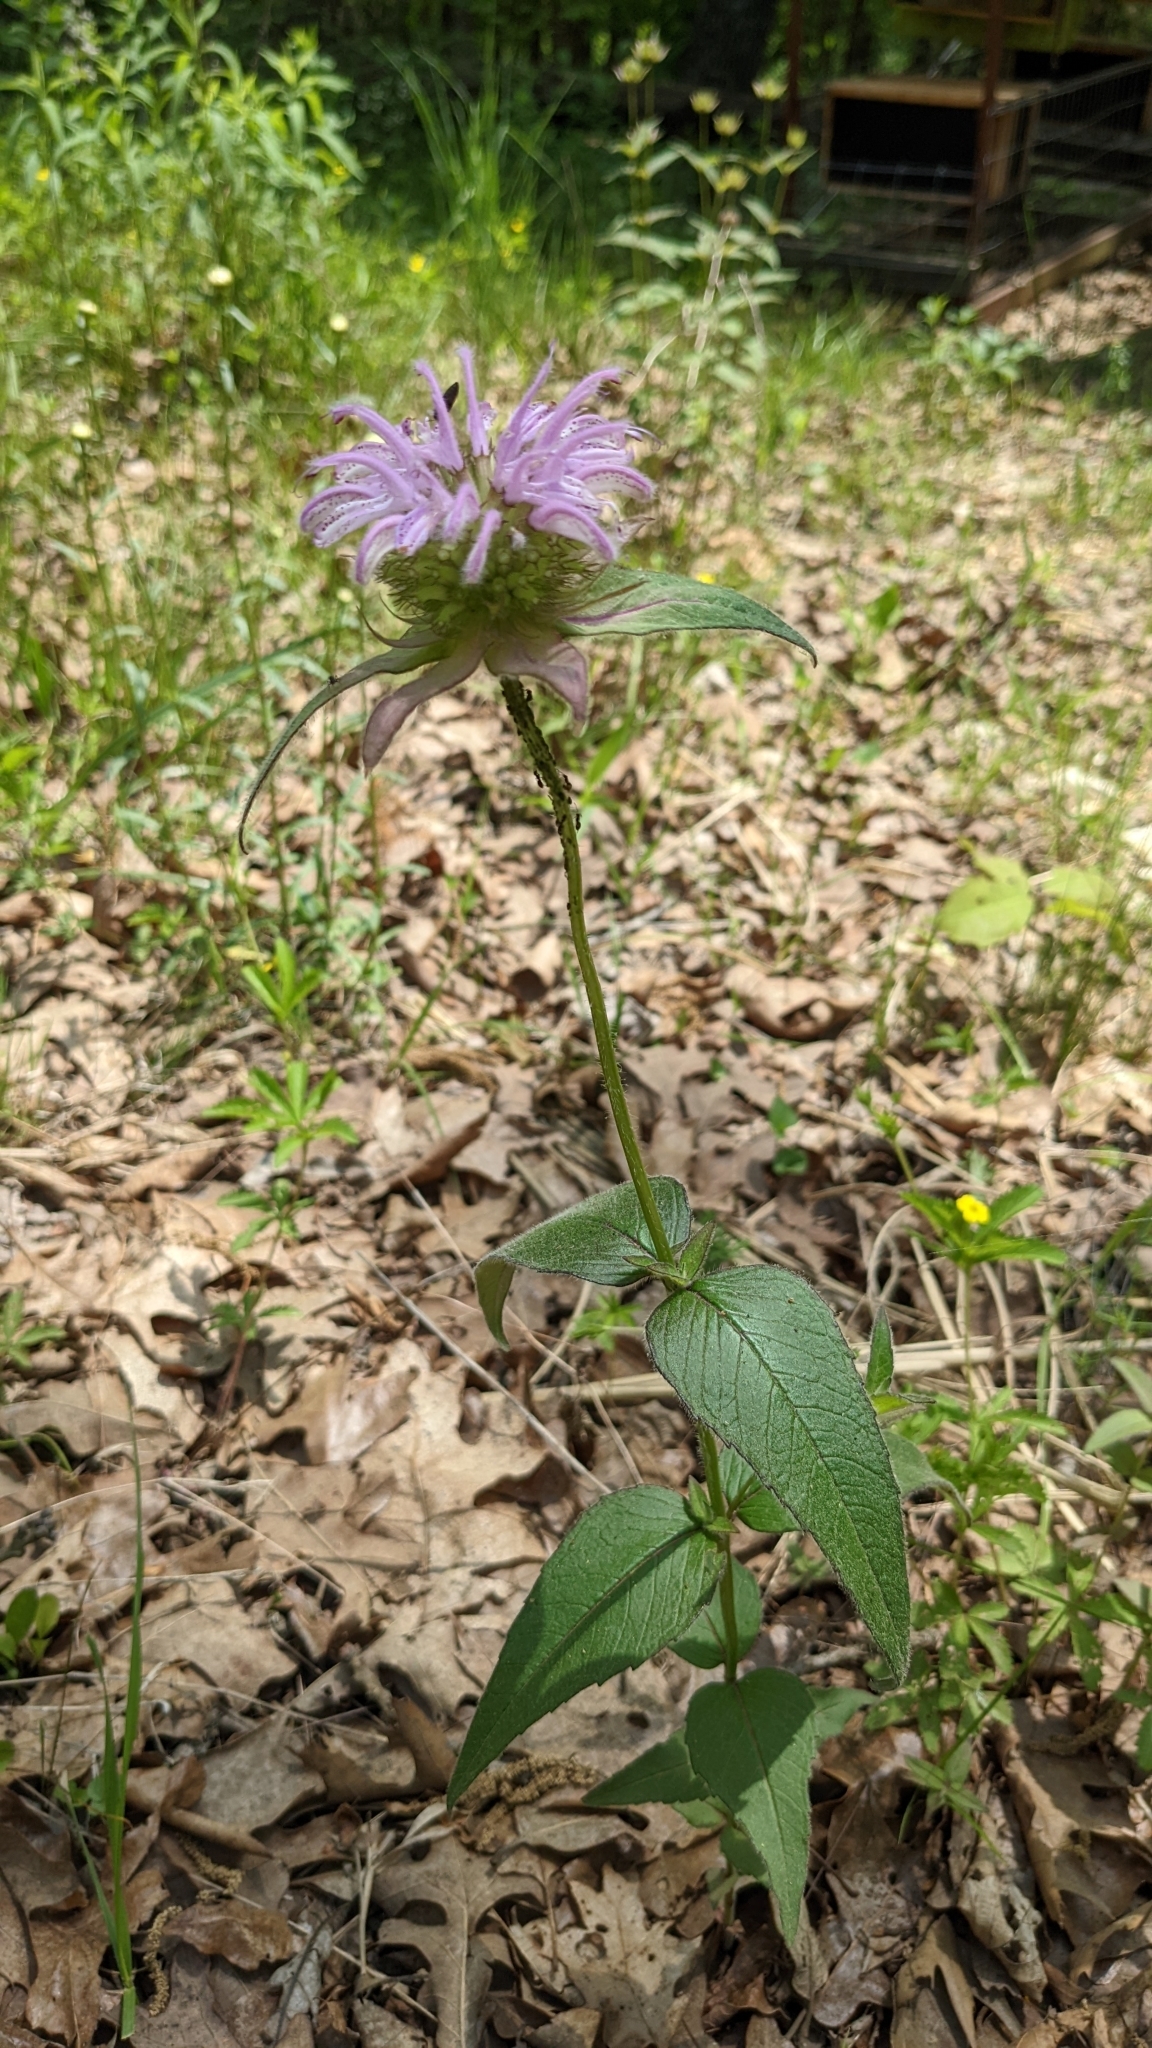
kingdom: Plantae
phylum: Tracheophyta
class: Magnoliopsida
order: Lamiales
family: Lamiaceae
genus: Monarda
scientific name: Monarda bradburiana
